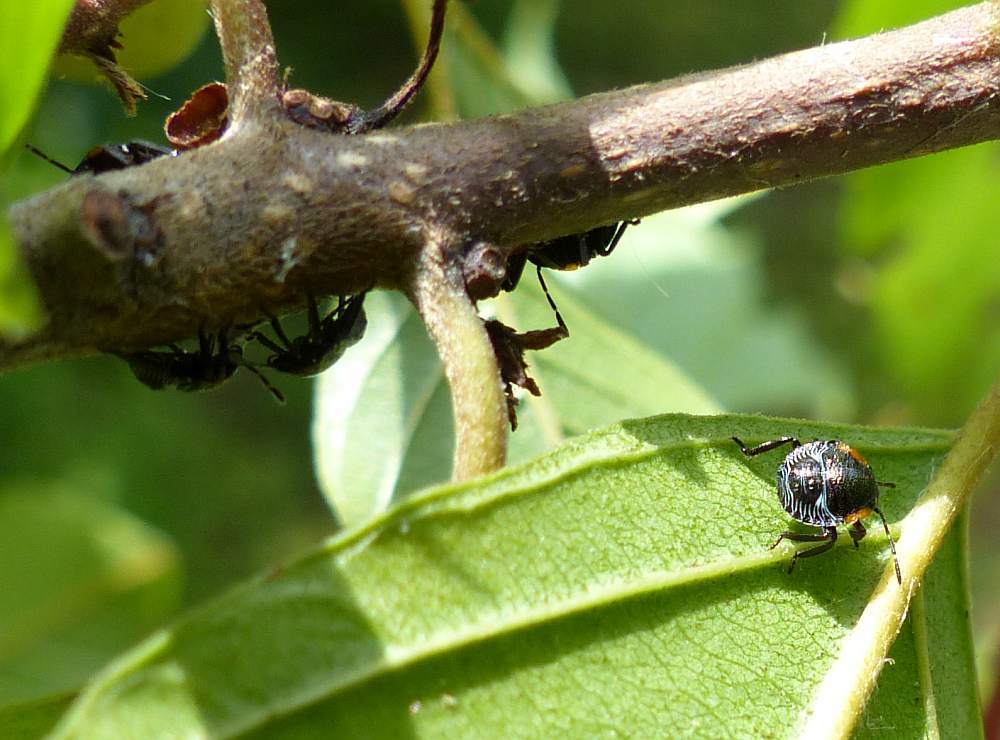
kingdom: Animalia
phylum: Arthropoda
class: Insecta
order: Hemiptera
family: Pentatomidae
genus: Chinavia
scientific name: Chinavia hilaris
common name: Green stink bug
